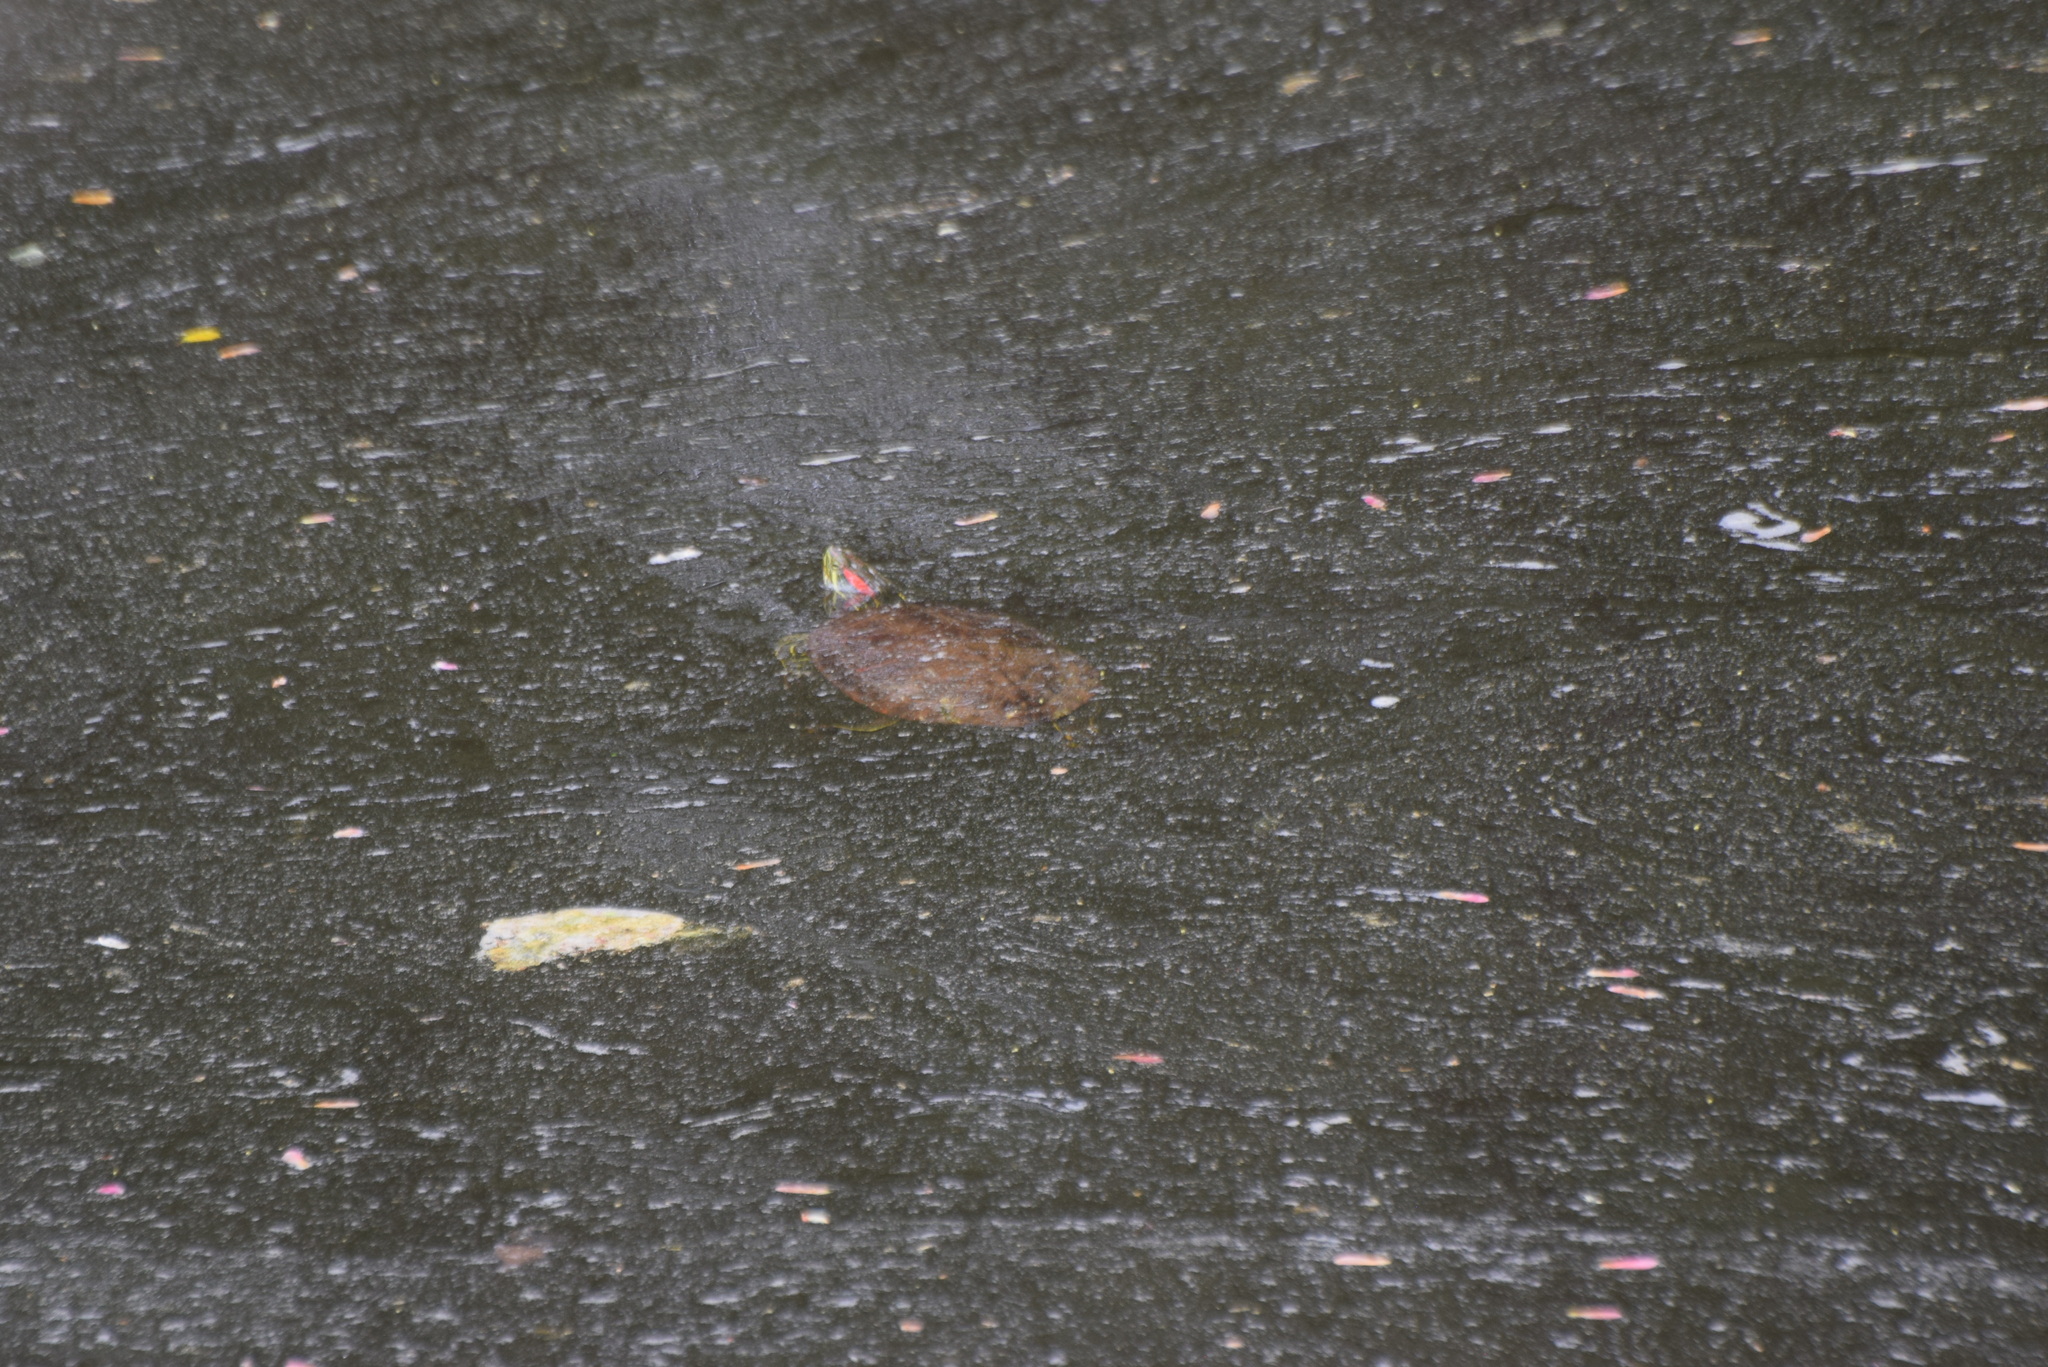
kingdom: Animalia
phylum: Chordata
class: Testudines
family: Emydidae
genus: Trachemys
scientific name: Trachemys scripta
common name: Slider
